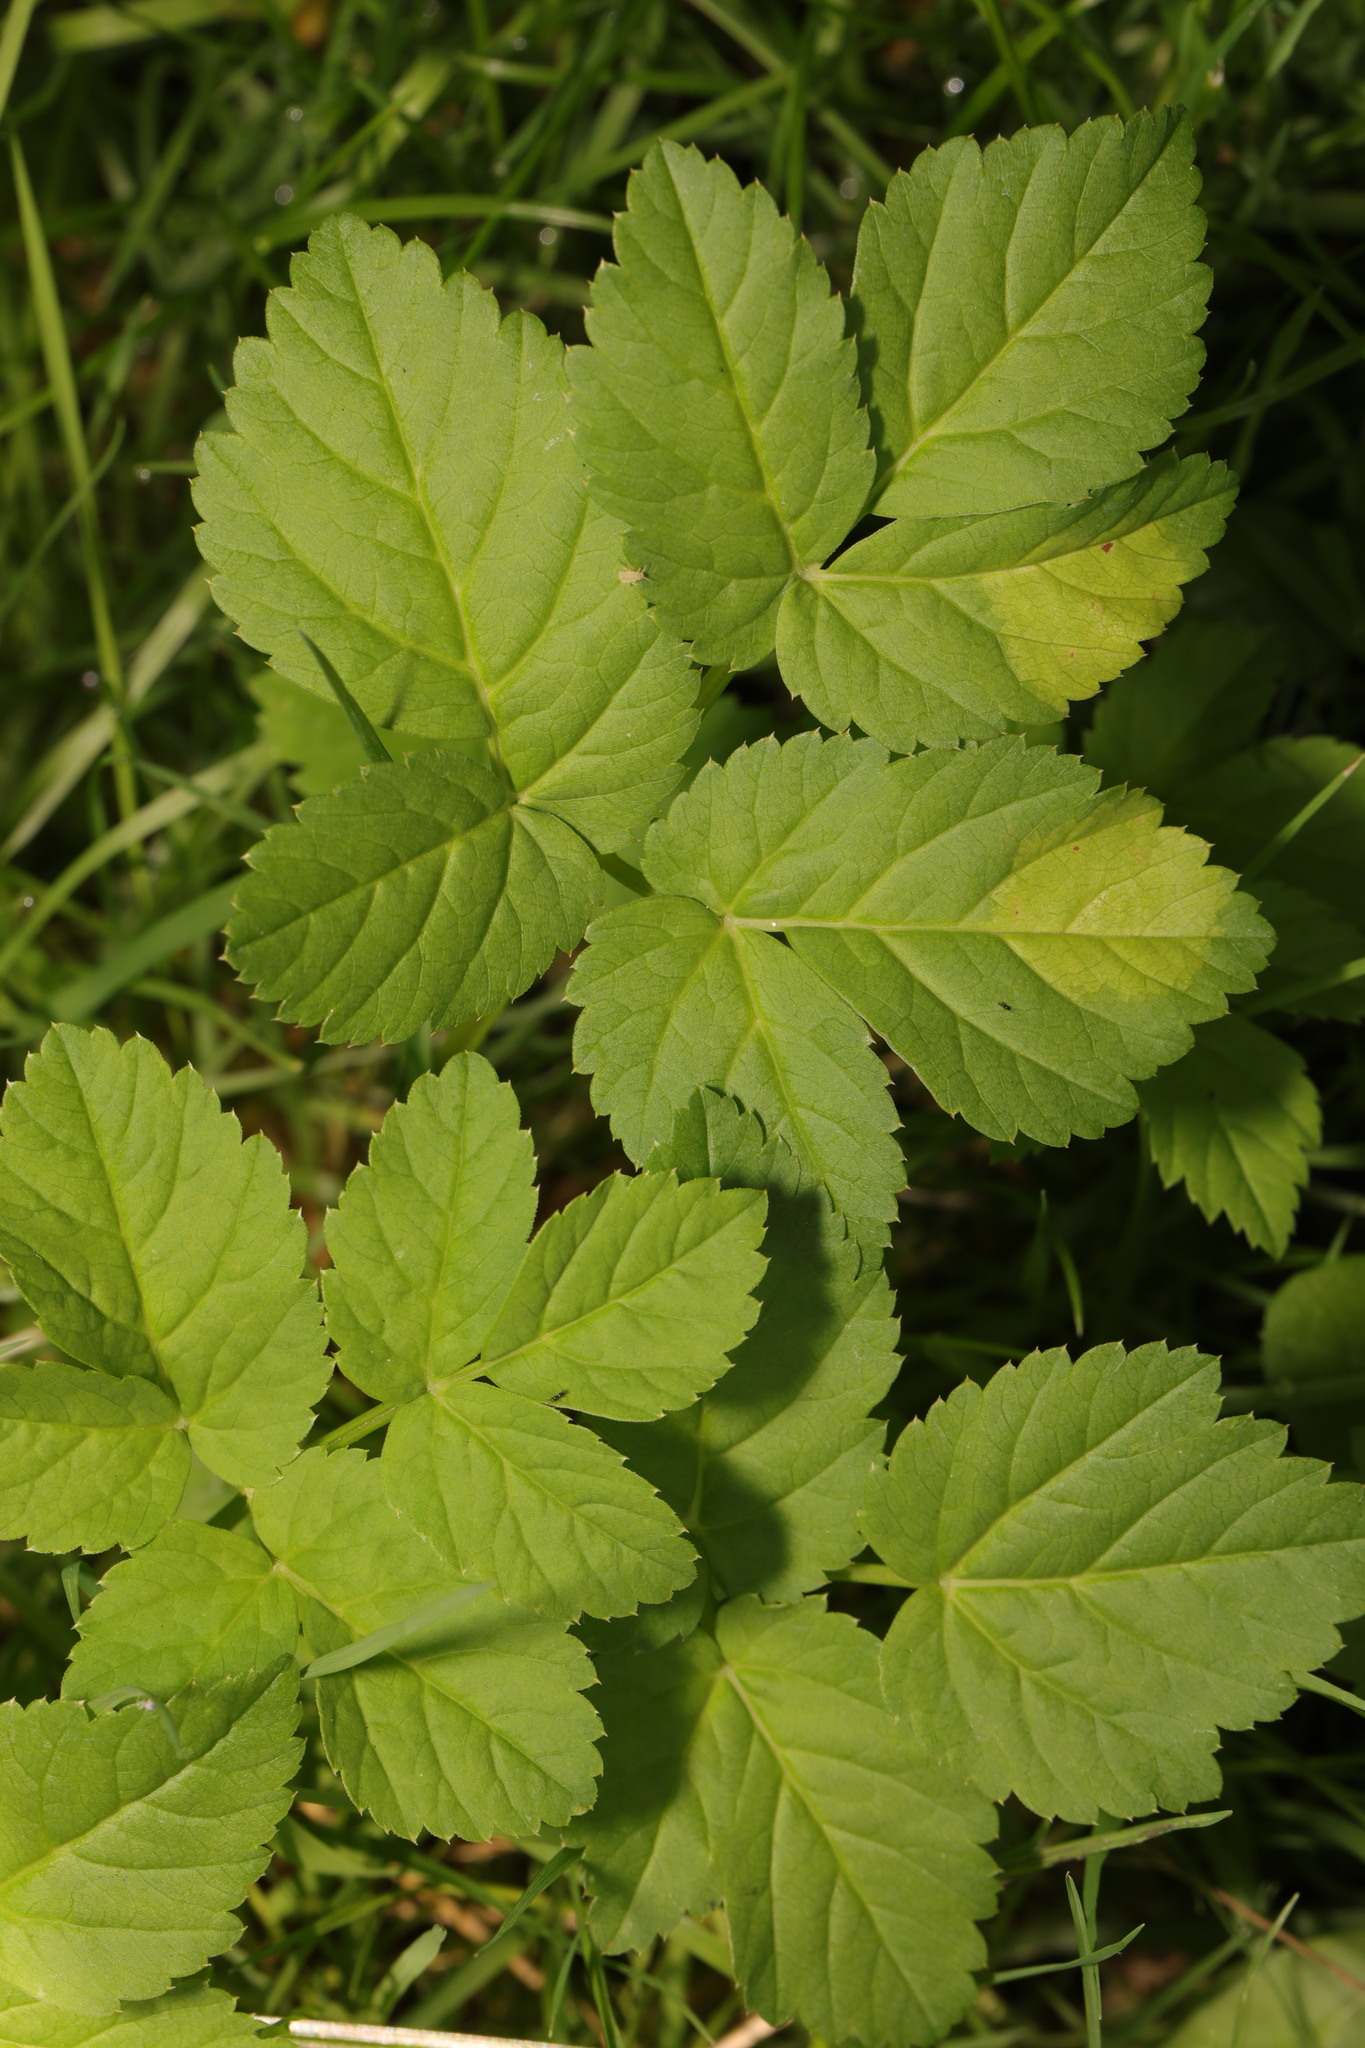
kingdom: Plantae
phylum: Tracheophyta
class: Magnoliopsida
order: Apiales
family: Apiaceae
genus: Aegopodium
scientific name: Aegopodium podagraria
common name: Ground-elder
